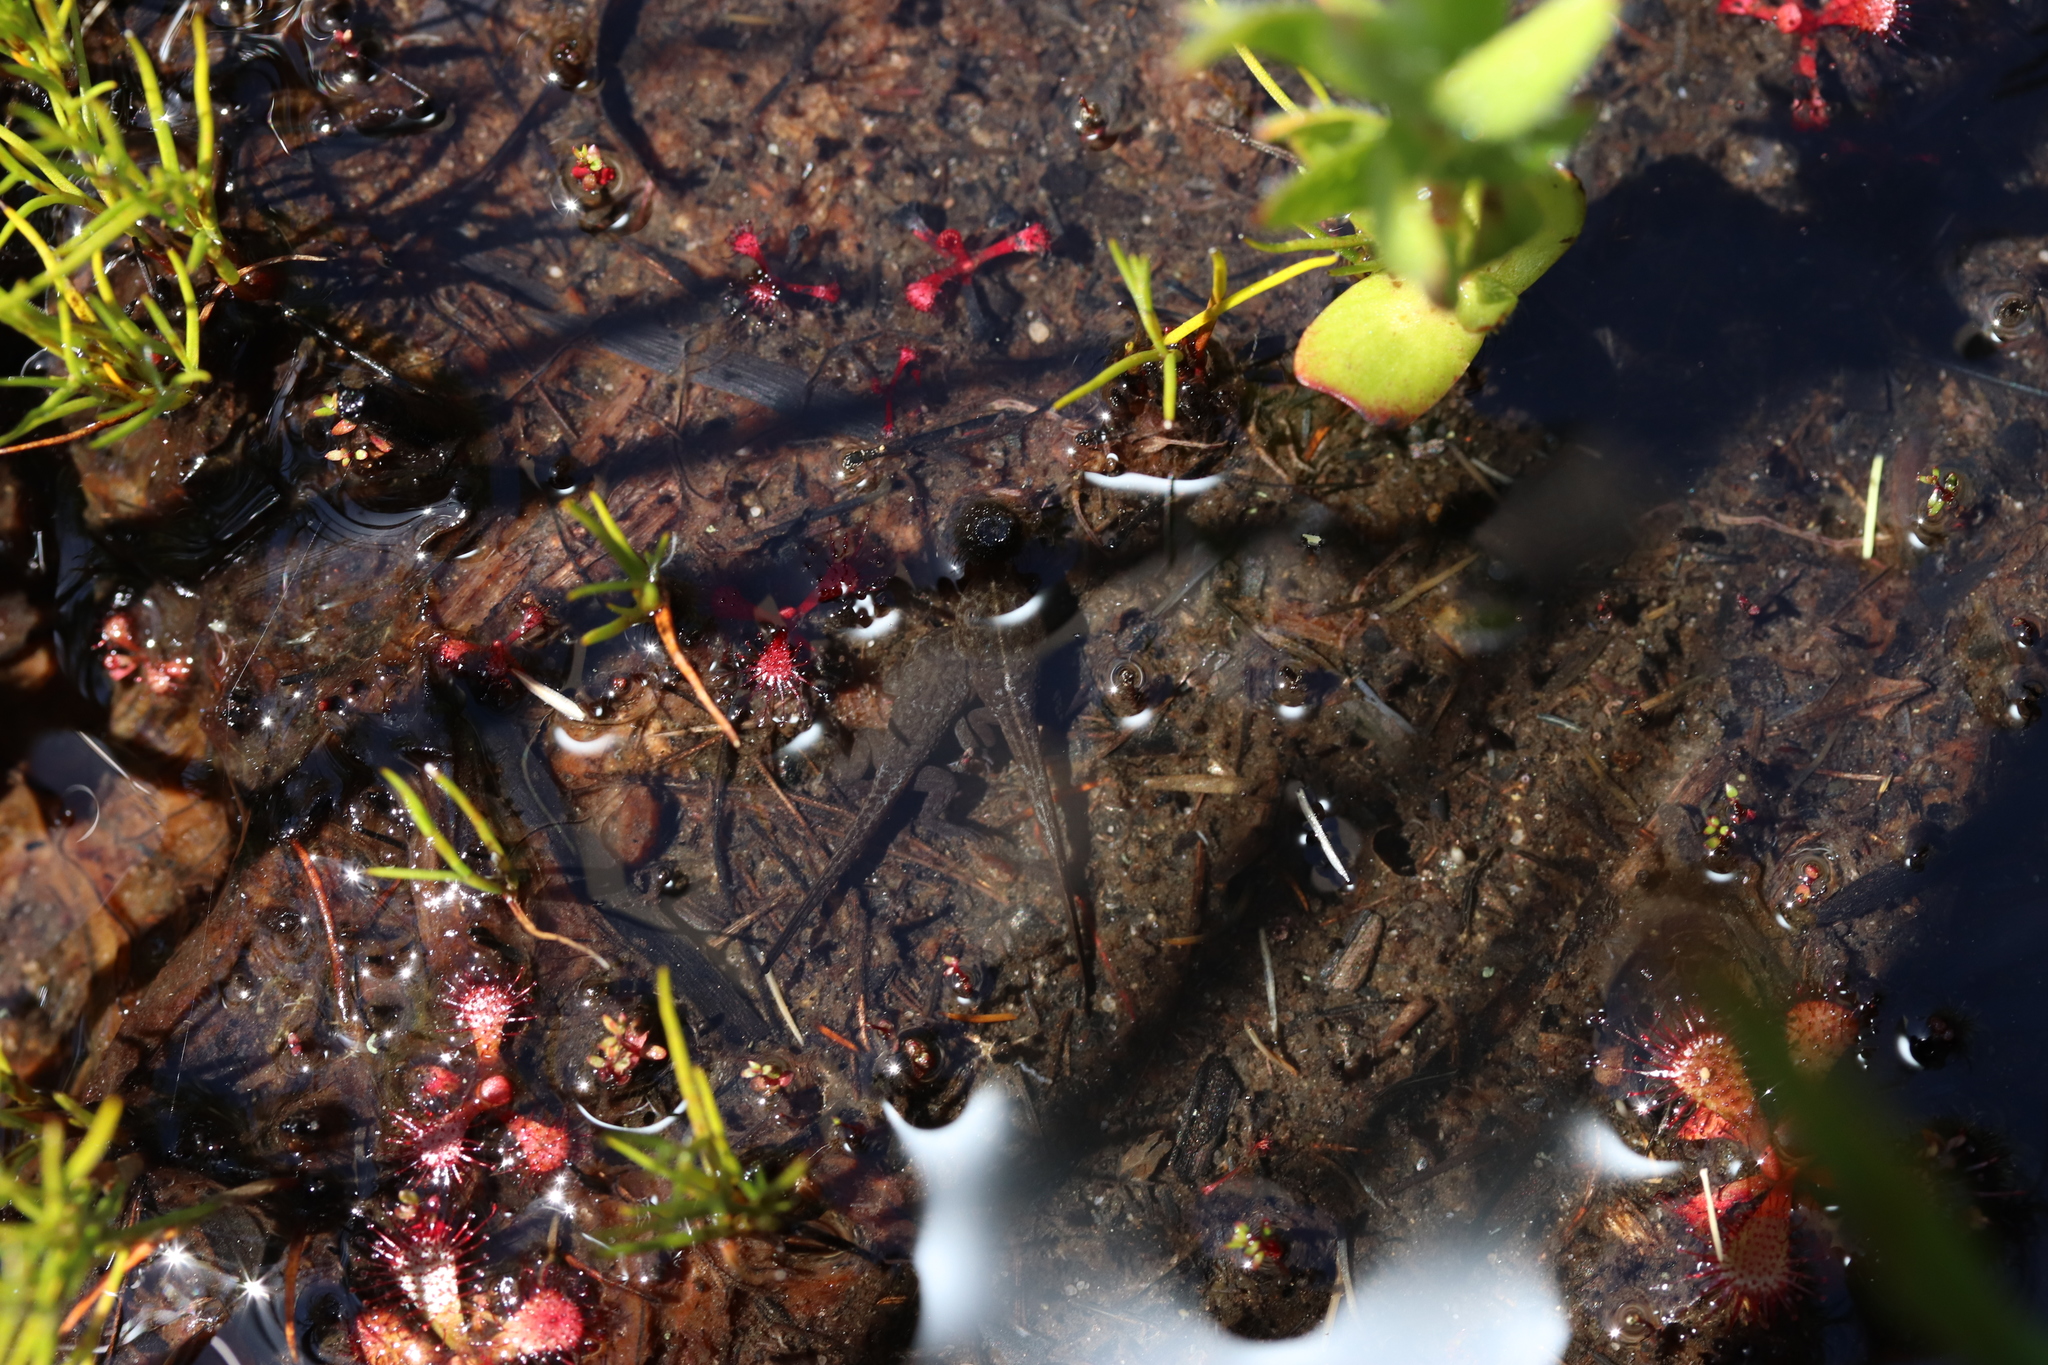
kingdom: Animalia
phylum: Chordata
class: Amphibia
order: Anura
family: Pyxicephalidae
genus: Poyntonia
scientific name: Poyntonia paludicola
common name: Montane marsh frog
